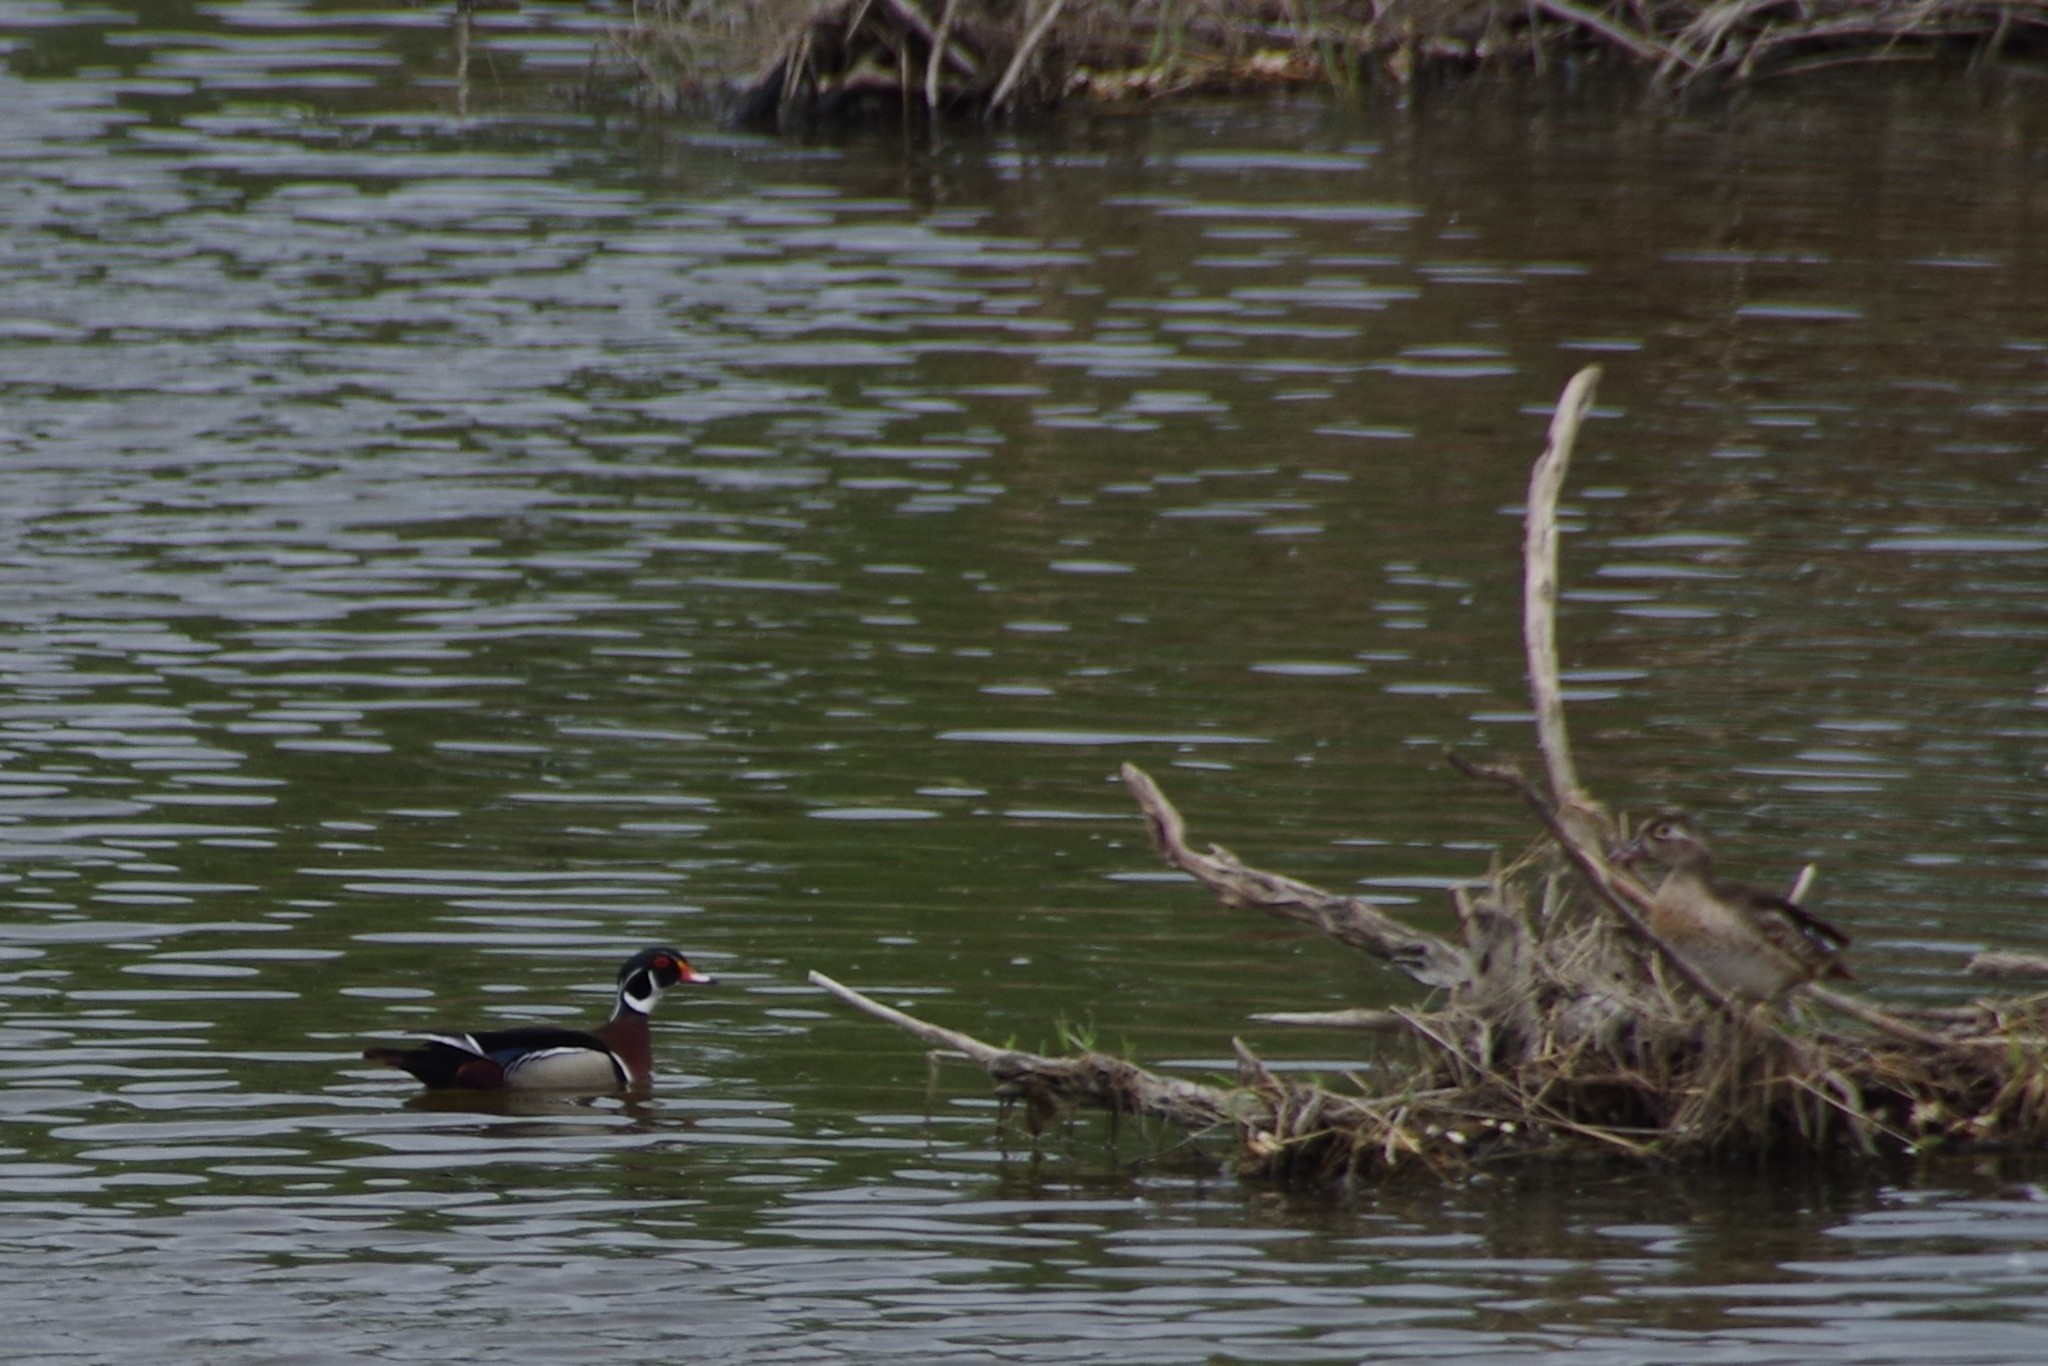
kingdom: Animalia
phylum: Chordata
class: Aves
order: Anseriformes
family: Anatidae
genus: Aix
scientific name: Aix sponsa
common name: Wood duck
